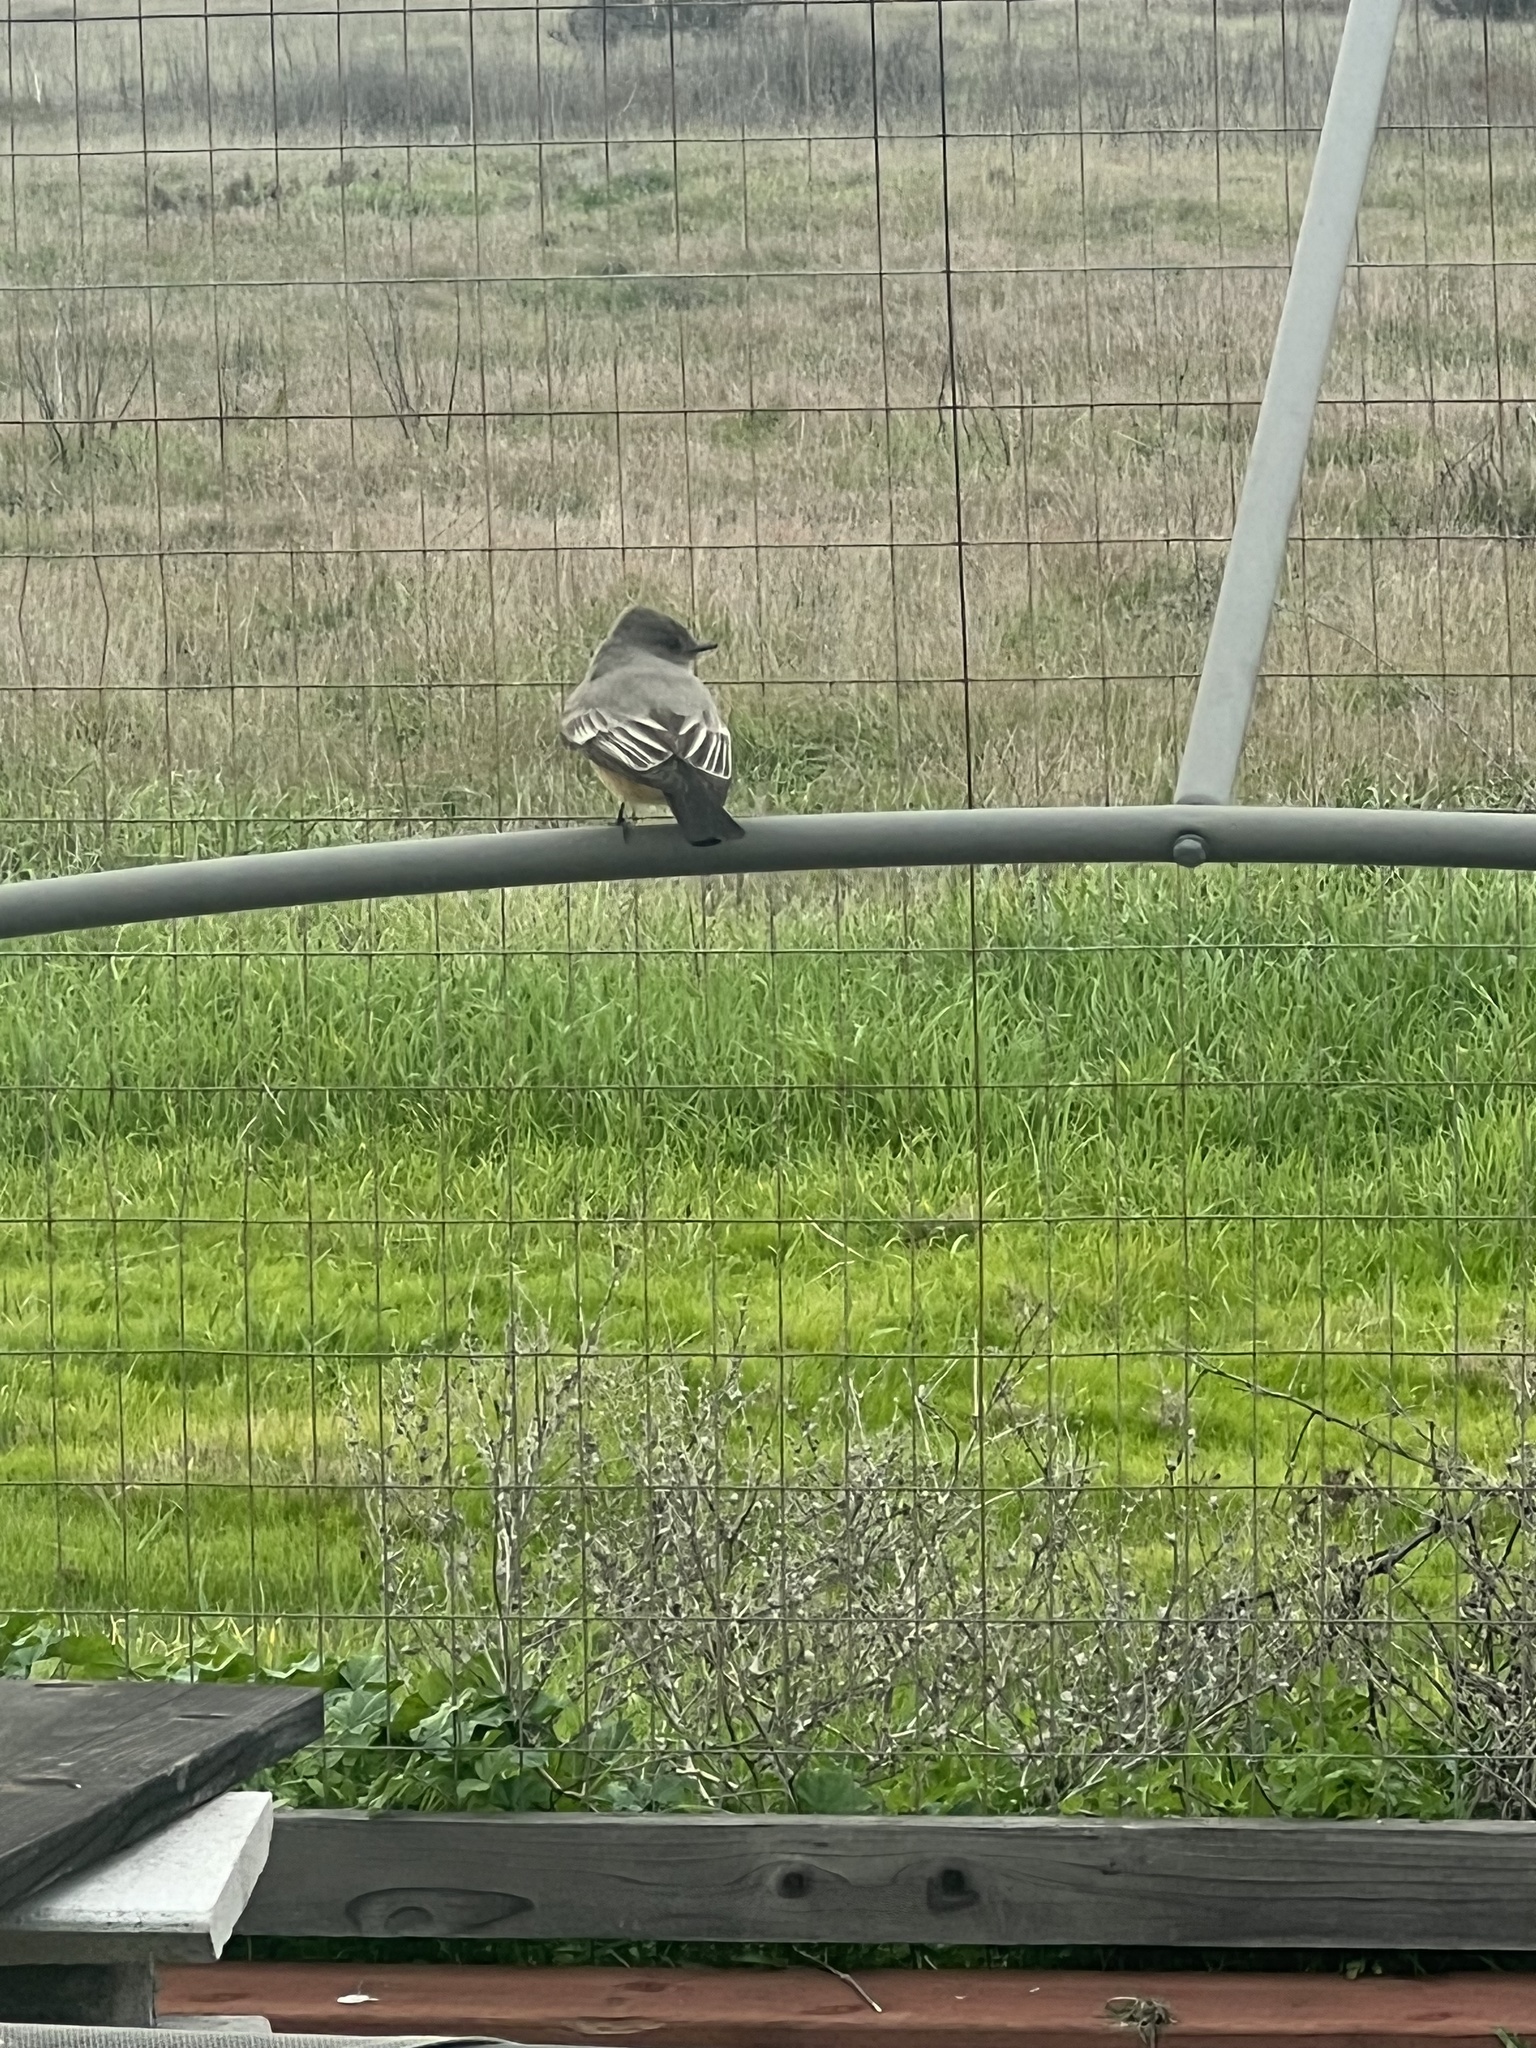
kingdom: Animalia
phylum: Chordata
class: Aves
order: Passeriformes
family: Tyrannidae
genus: Sayornis
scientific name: Sayornis saya
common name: Say's phoebe
